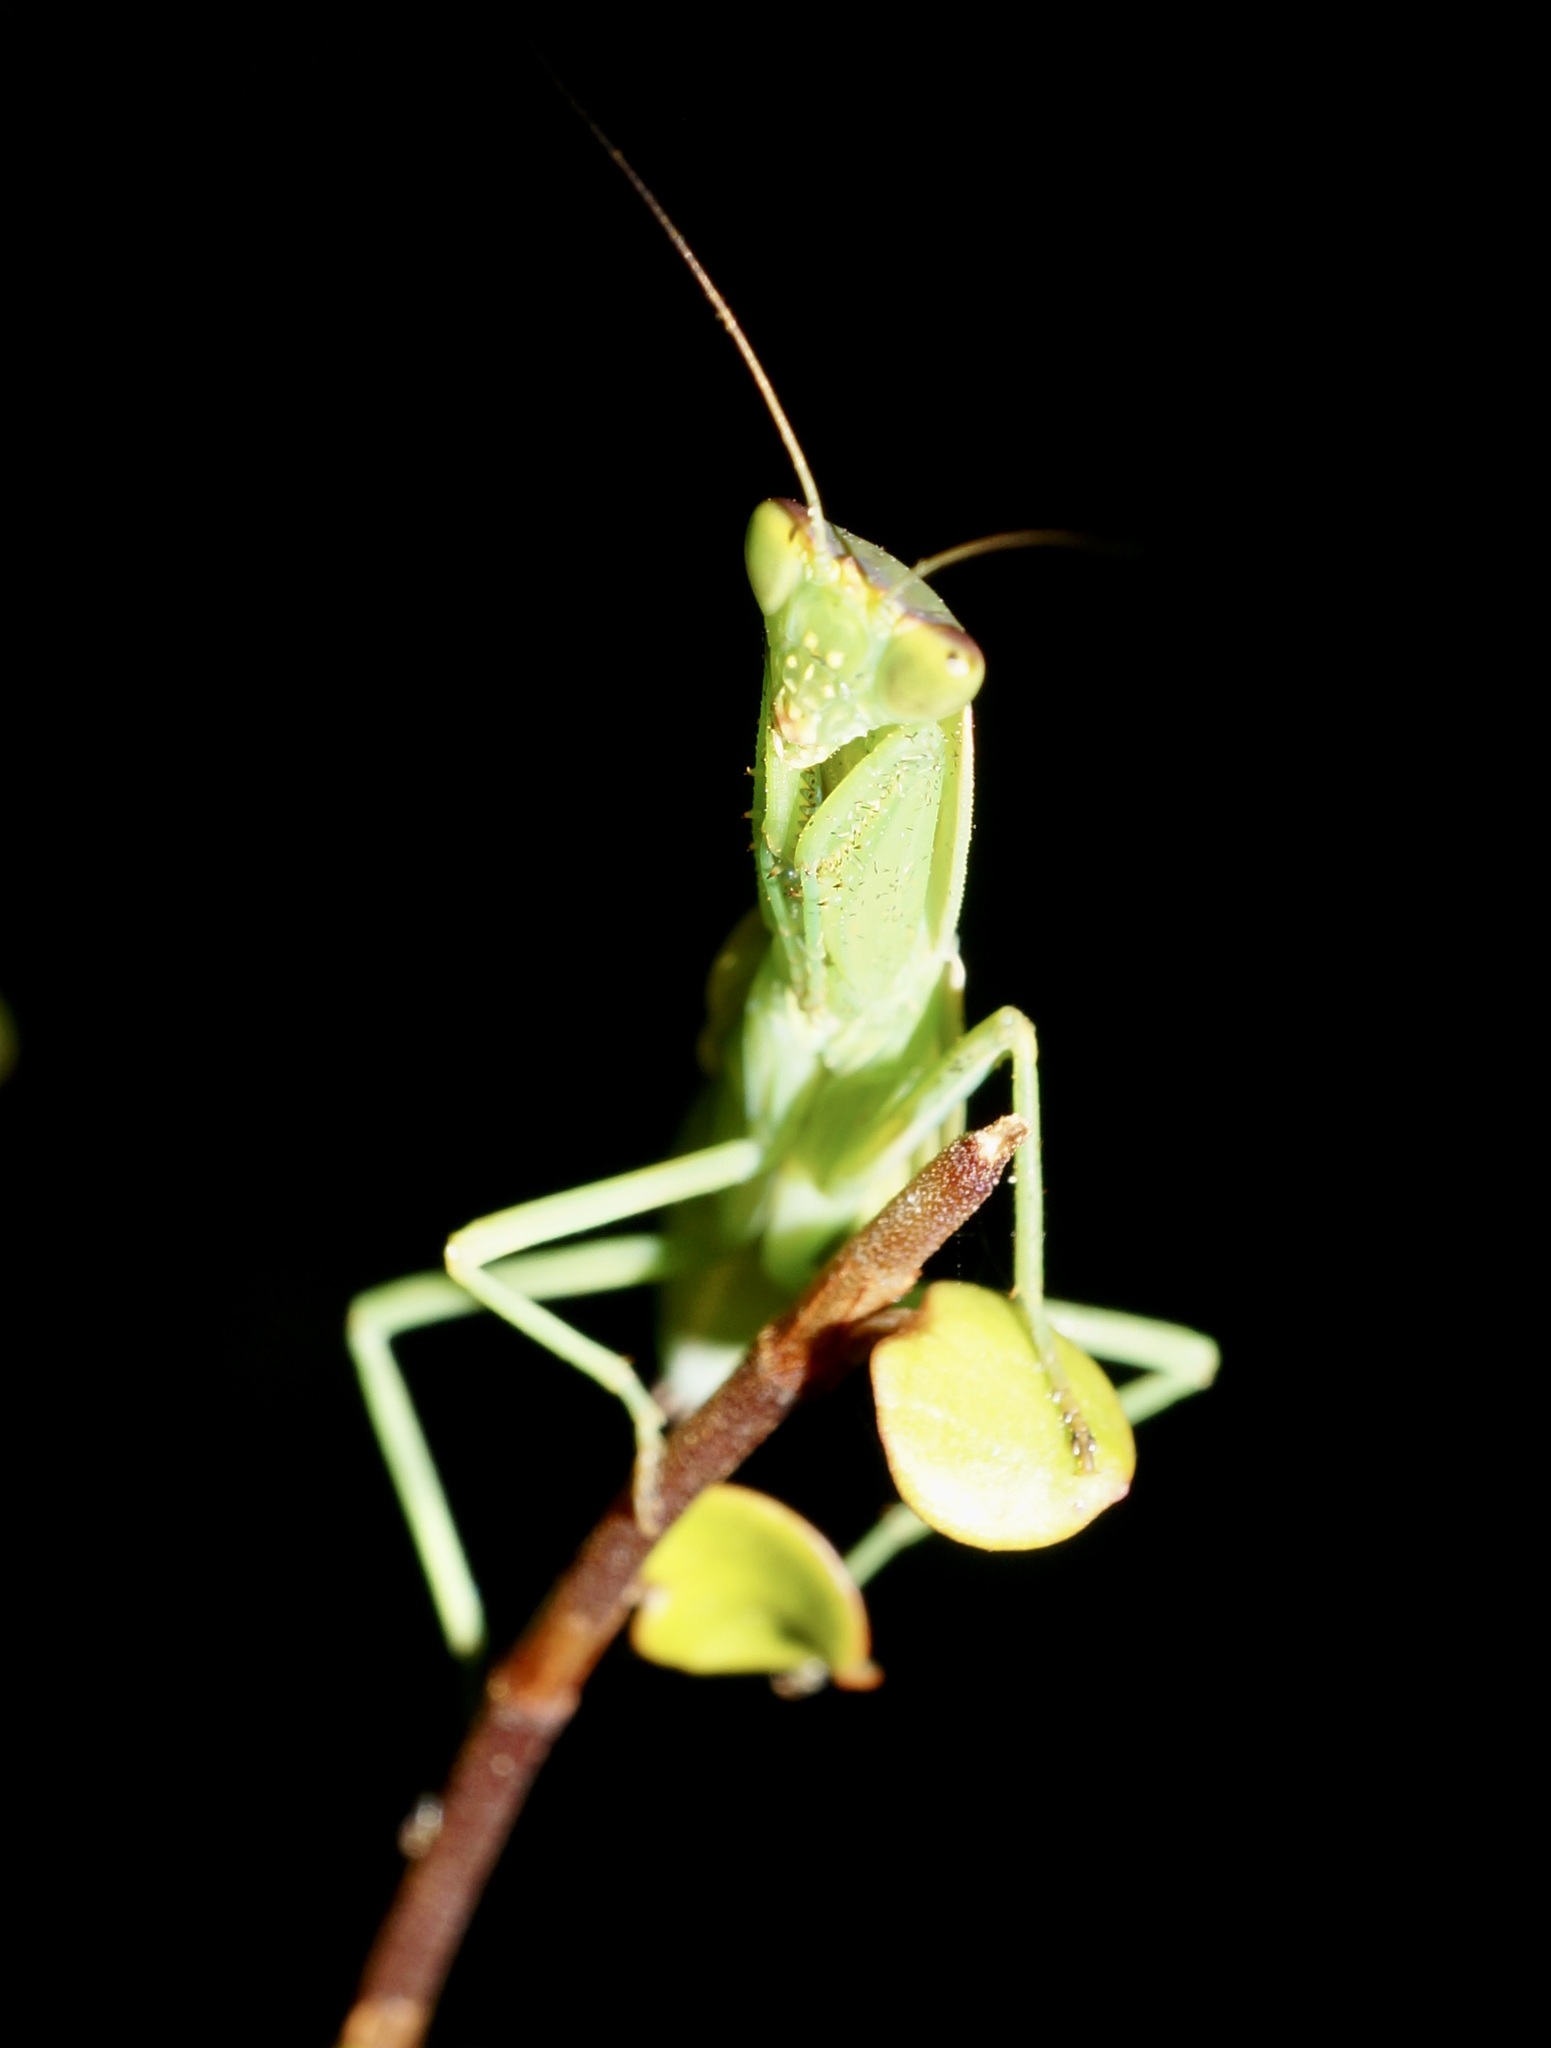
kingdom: Animalia
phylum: Arthropoda
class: Insecta
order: Mantodea
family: Mantidae
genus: Orthodera
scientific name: Orthodera novaezealandiae
